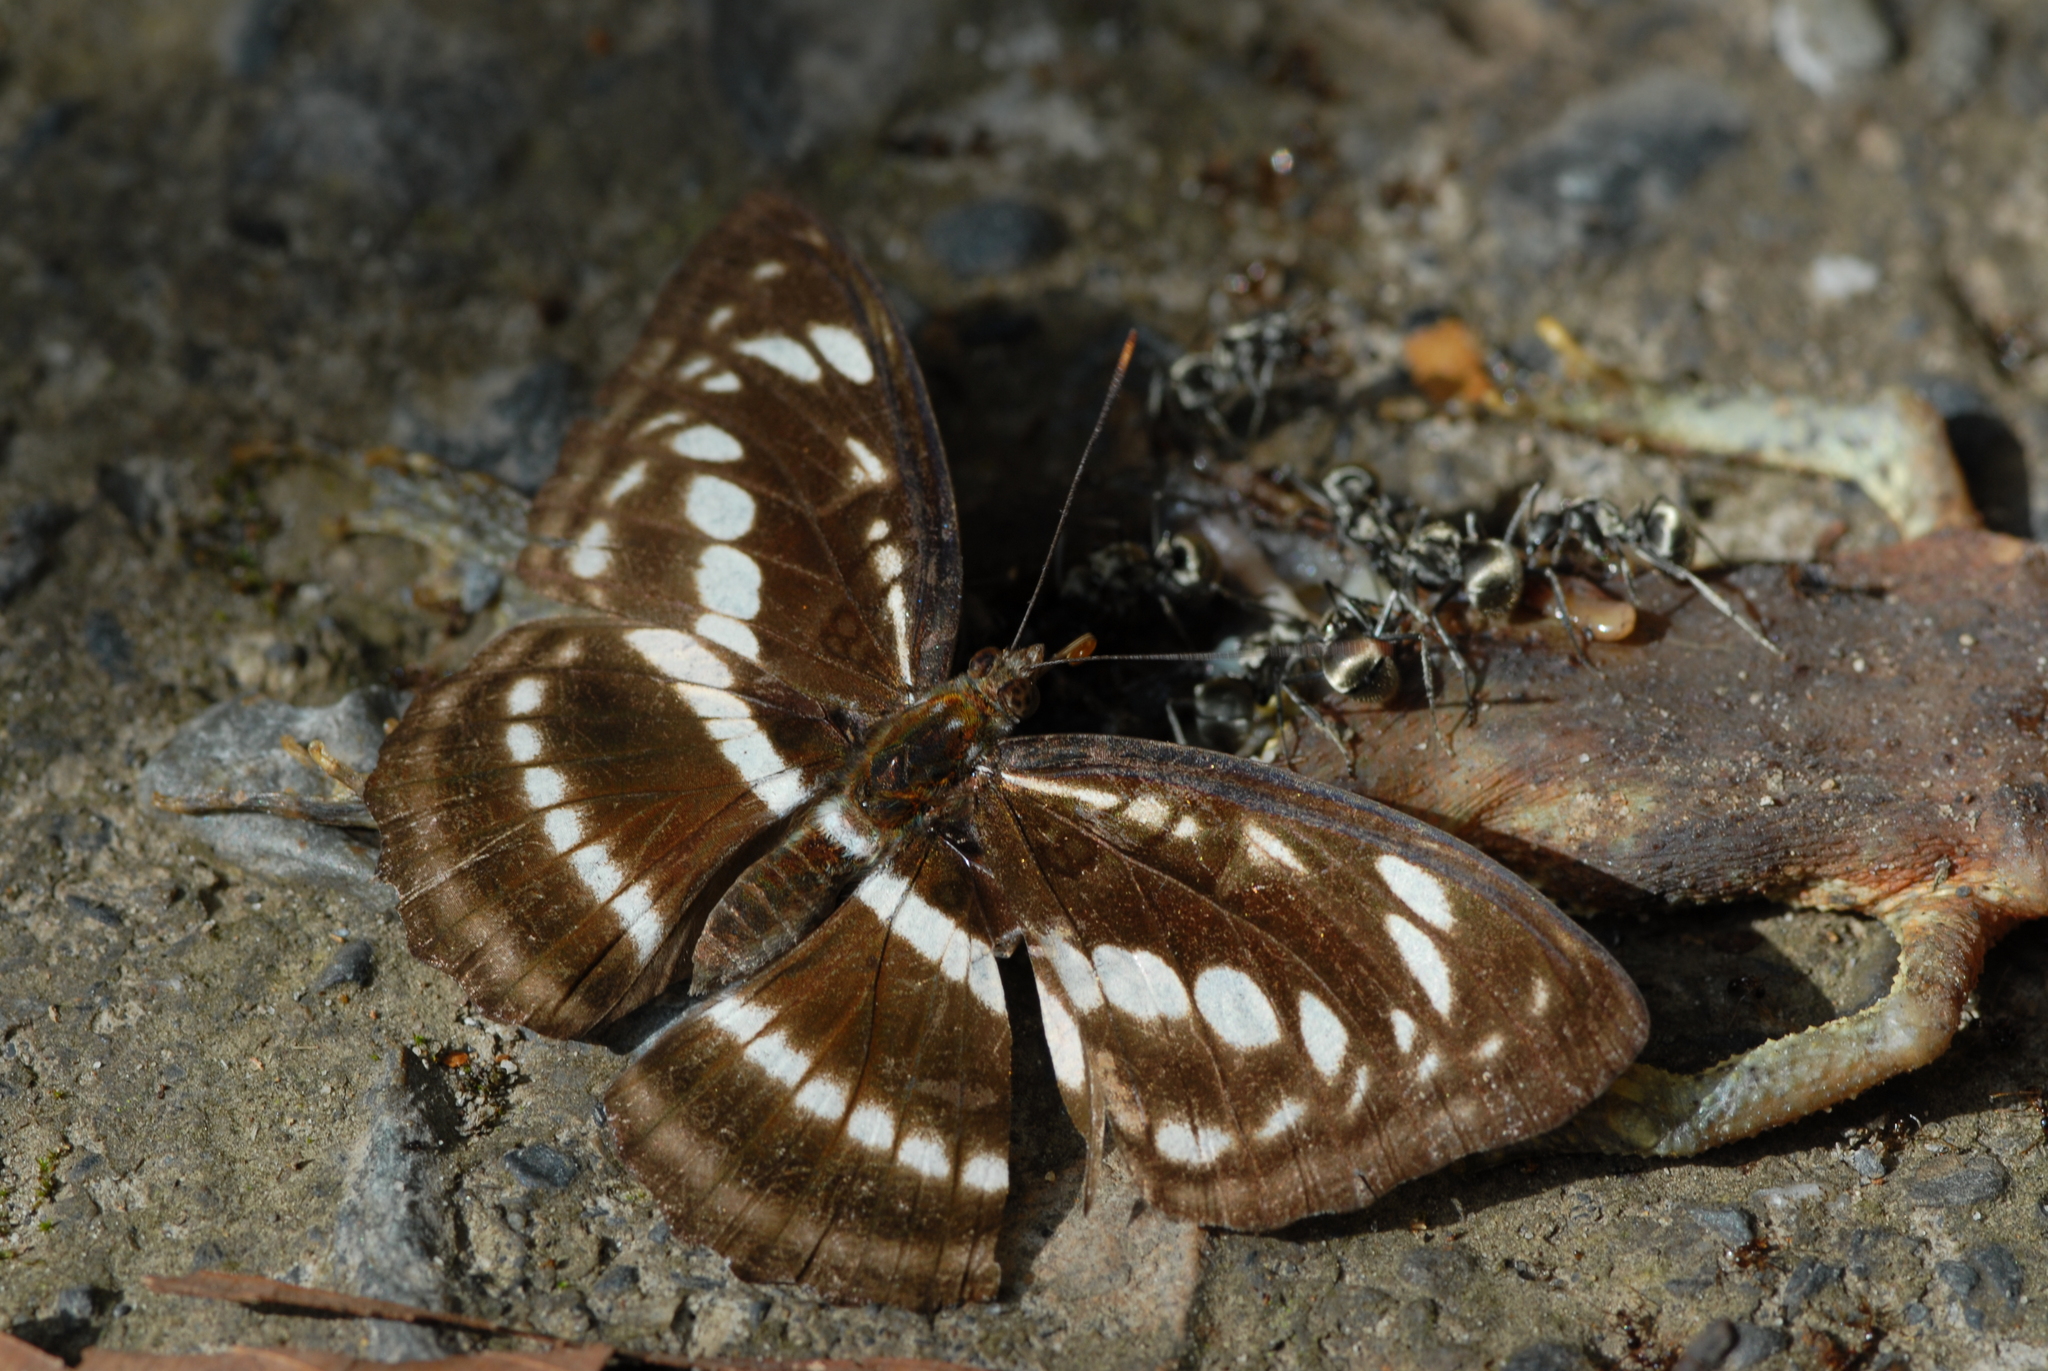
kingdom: Animalia
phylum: Arthropoda
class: Insecta
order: Lepidoptera
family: Nymphalidae
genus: Parathyma
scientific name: Parathyma selenophora
